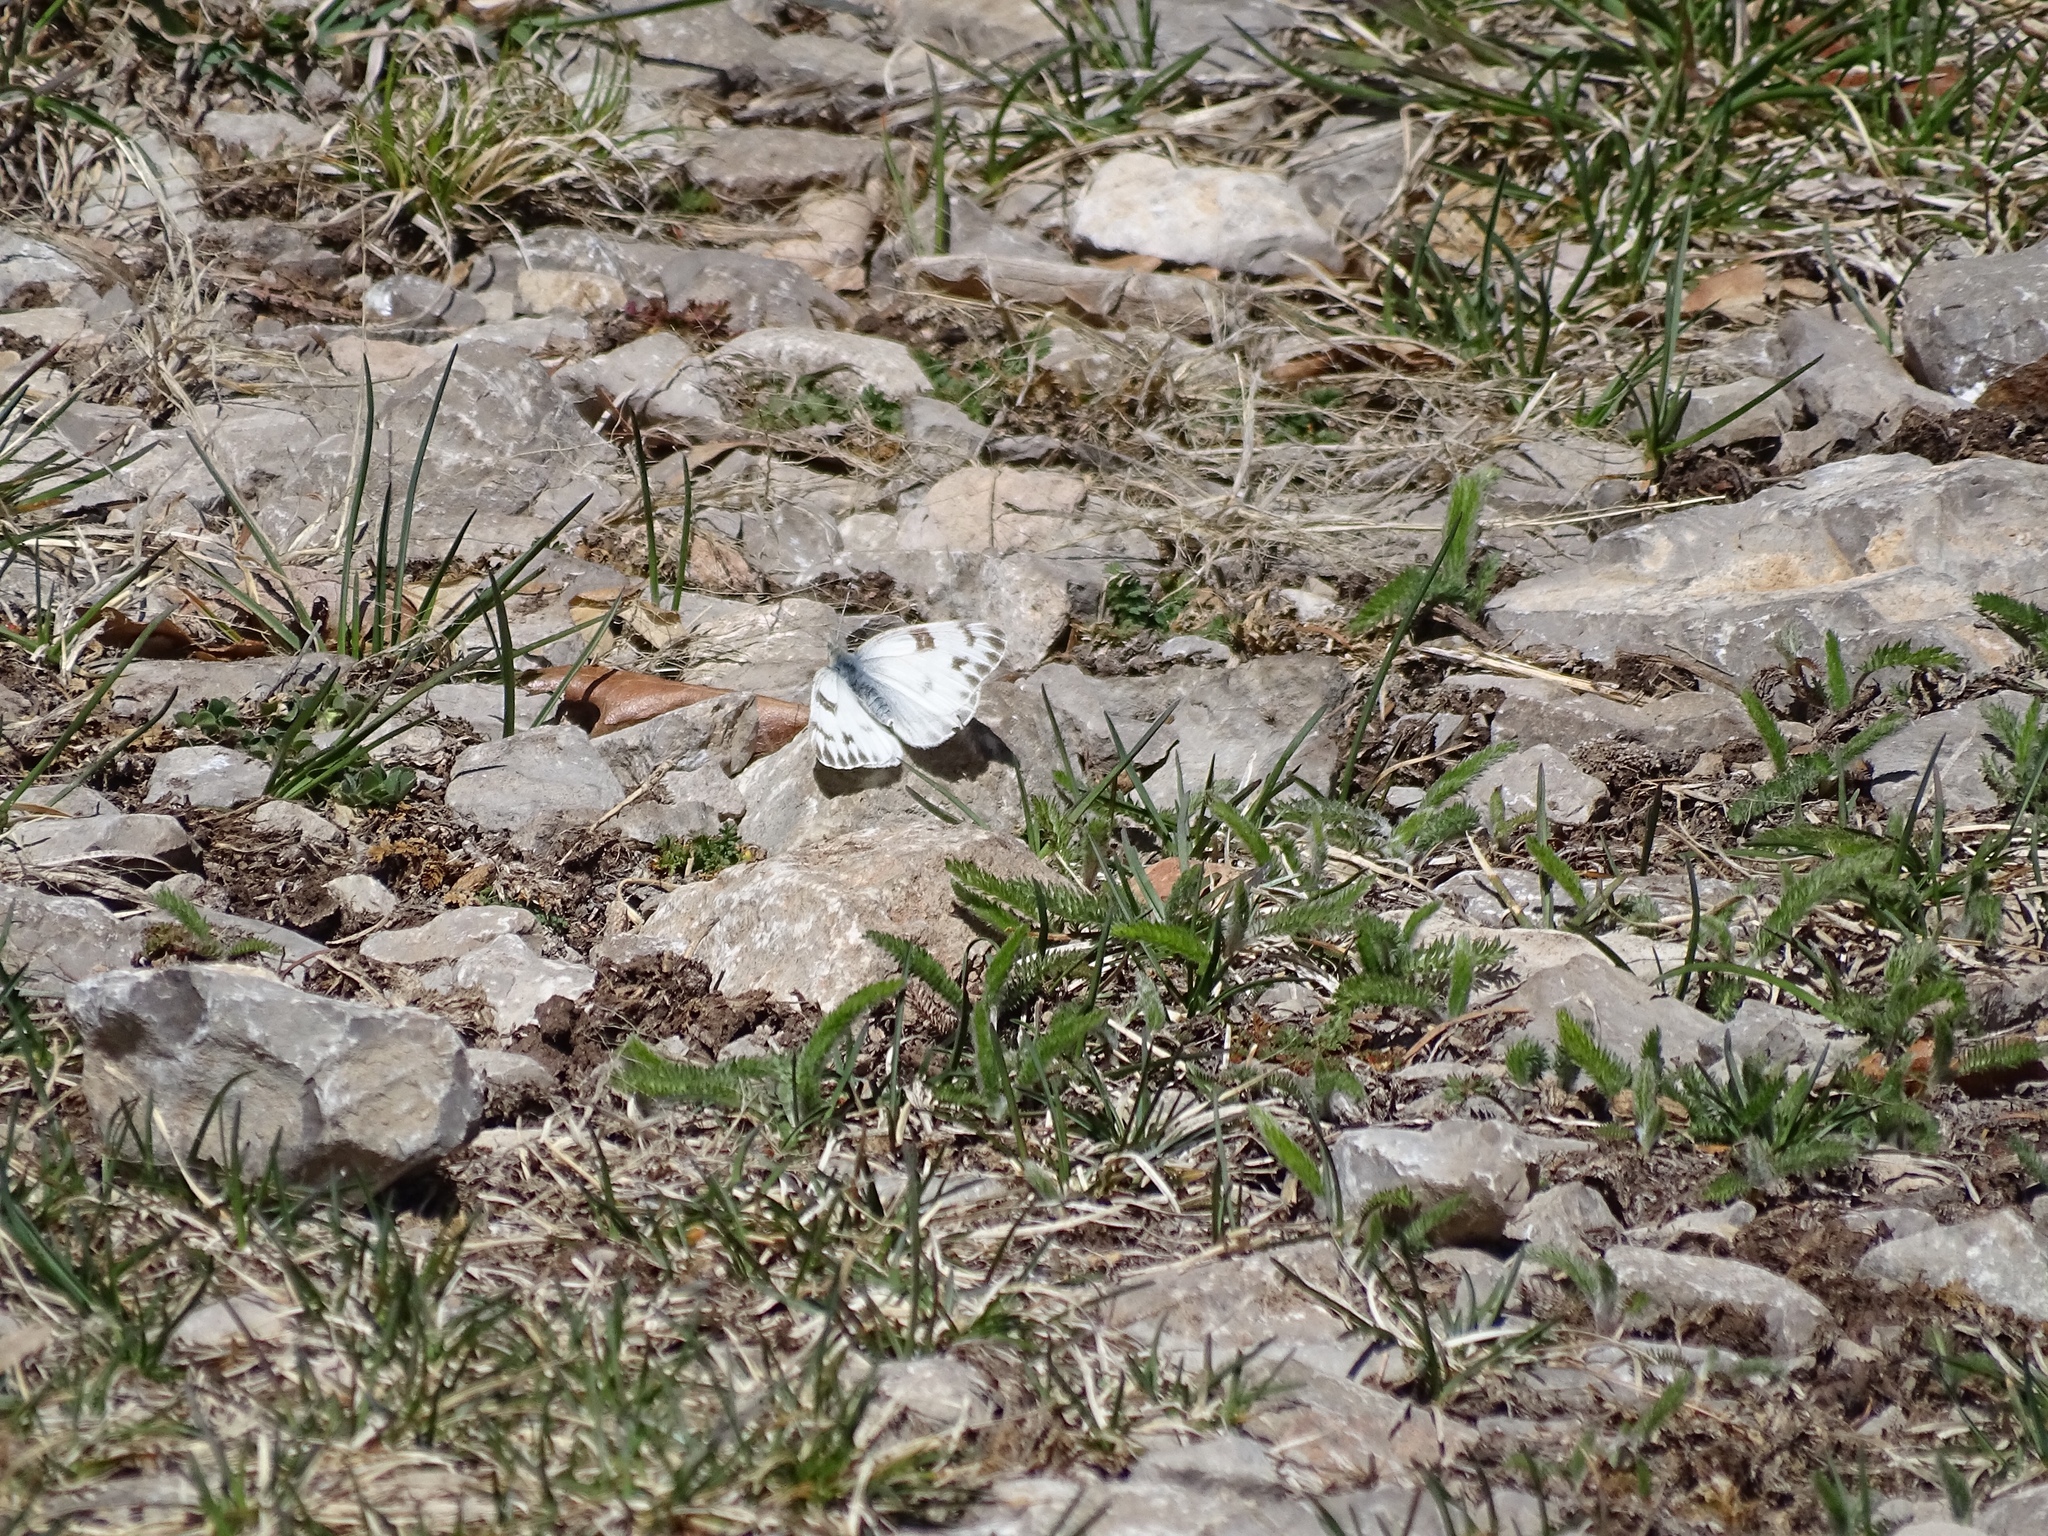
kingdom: Animalia
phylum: Arthropoda
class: Insecta
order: Lepidoptera
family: Pieridae
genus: Pontia
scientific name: Pontia protodice
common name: Checkered white
